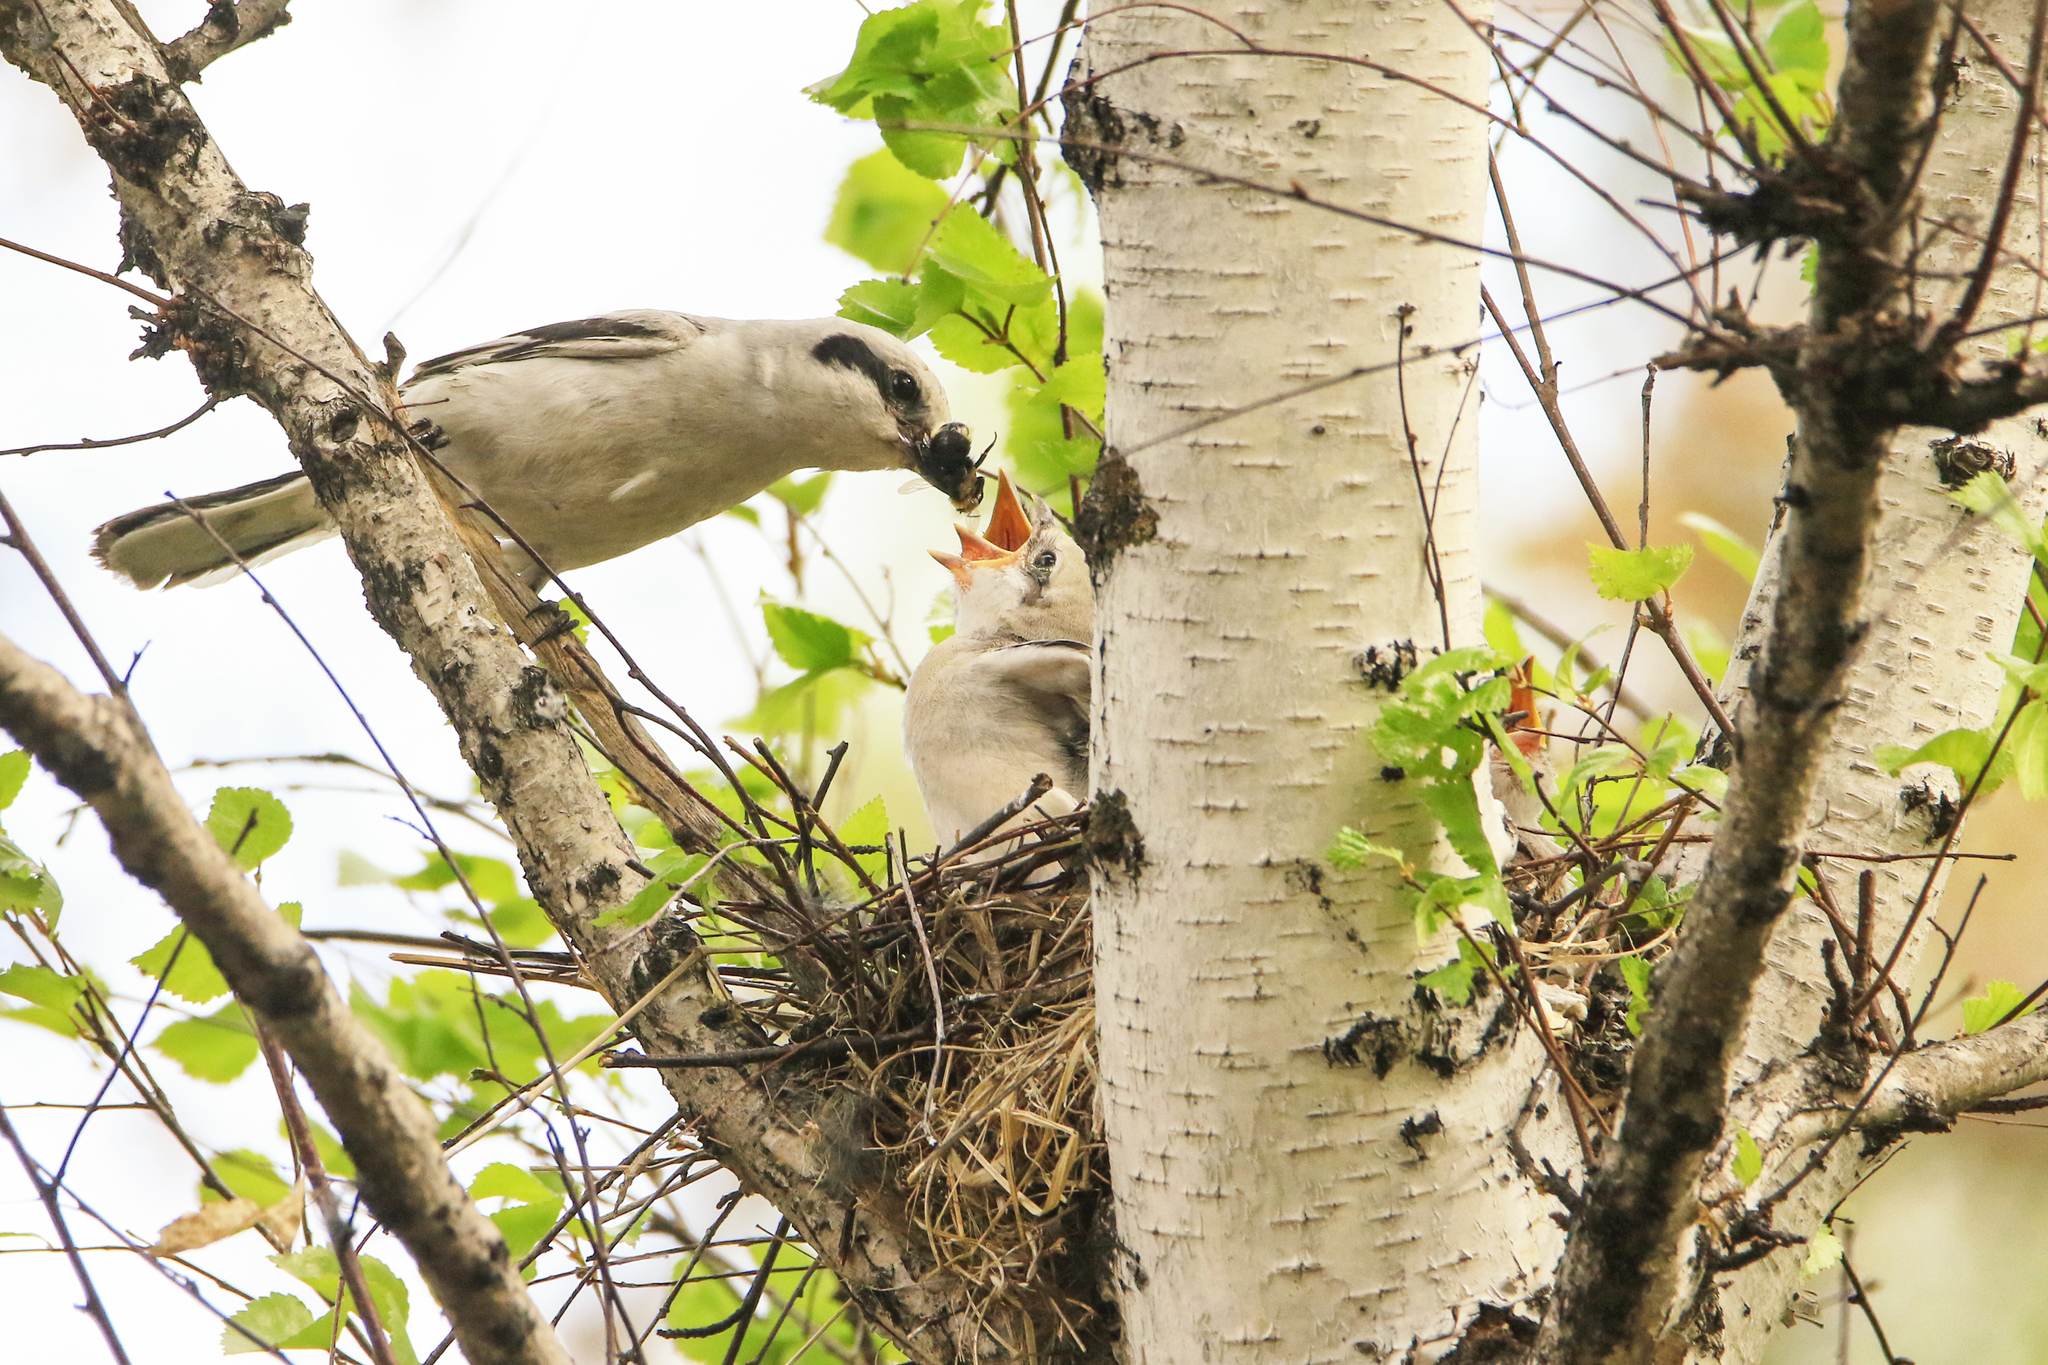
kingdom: Animalia
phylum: Chordata
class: Aves
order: Passeriformes
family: Laniidae
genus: Lanius
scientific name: Lanius excubitor
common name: Great grey shrike
